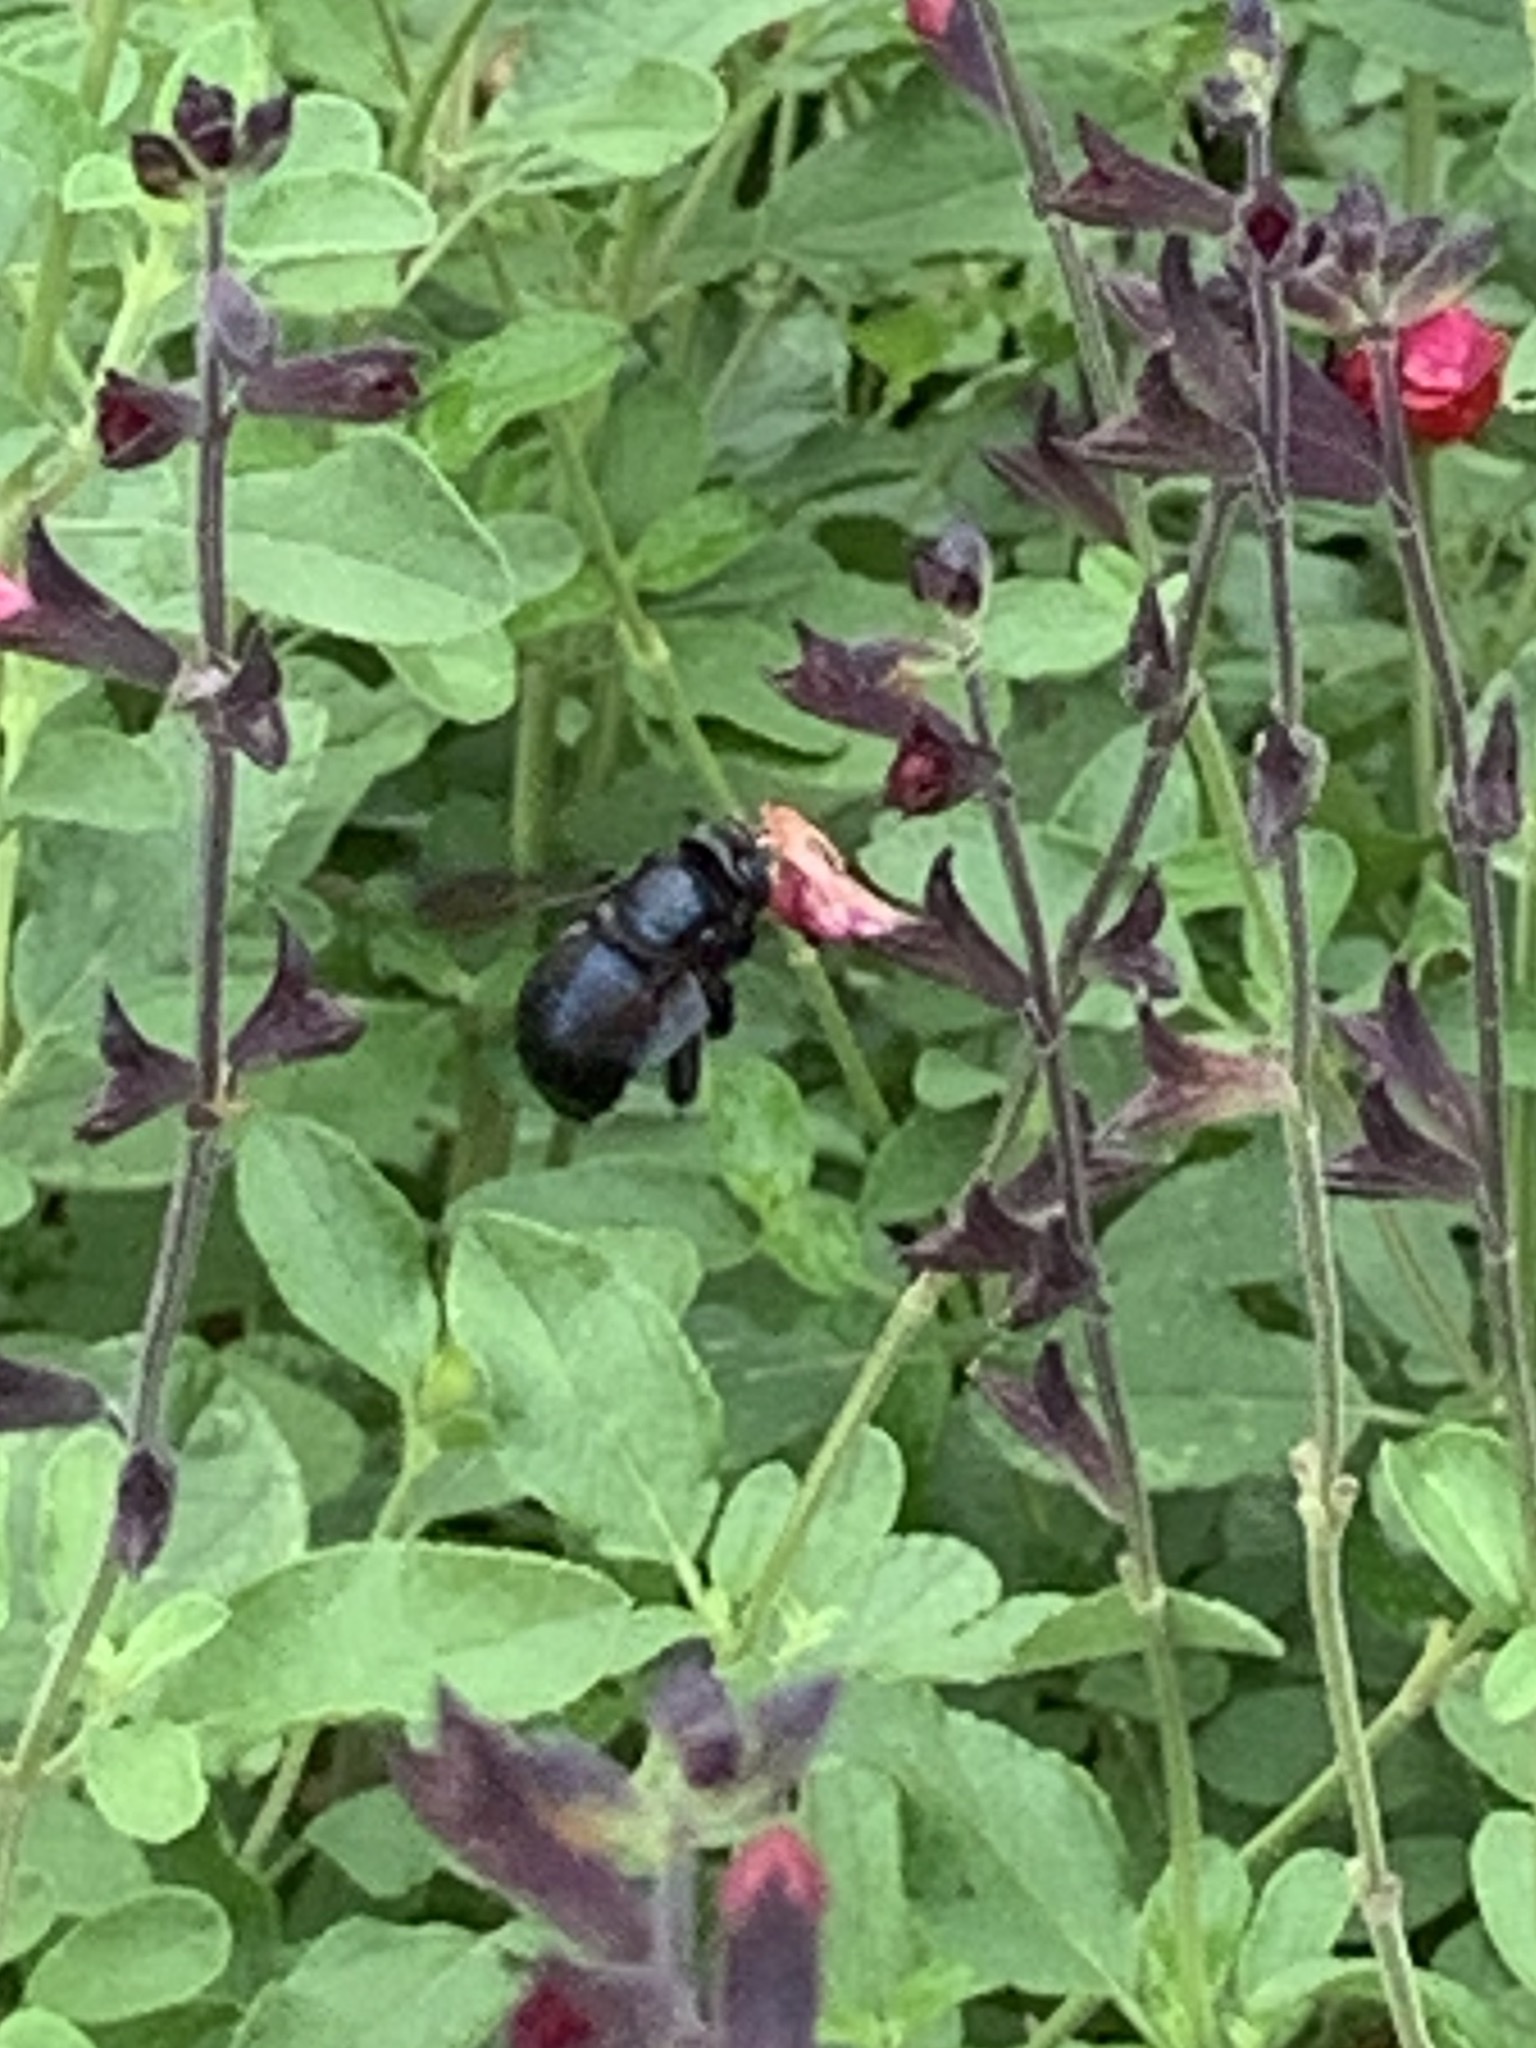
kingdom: Animalia
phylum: Arthropoda
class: Insecta
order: Hymenoptera
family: Apidae
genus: Xylocopa
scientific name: Xylocopa micans
